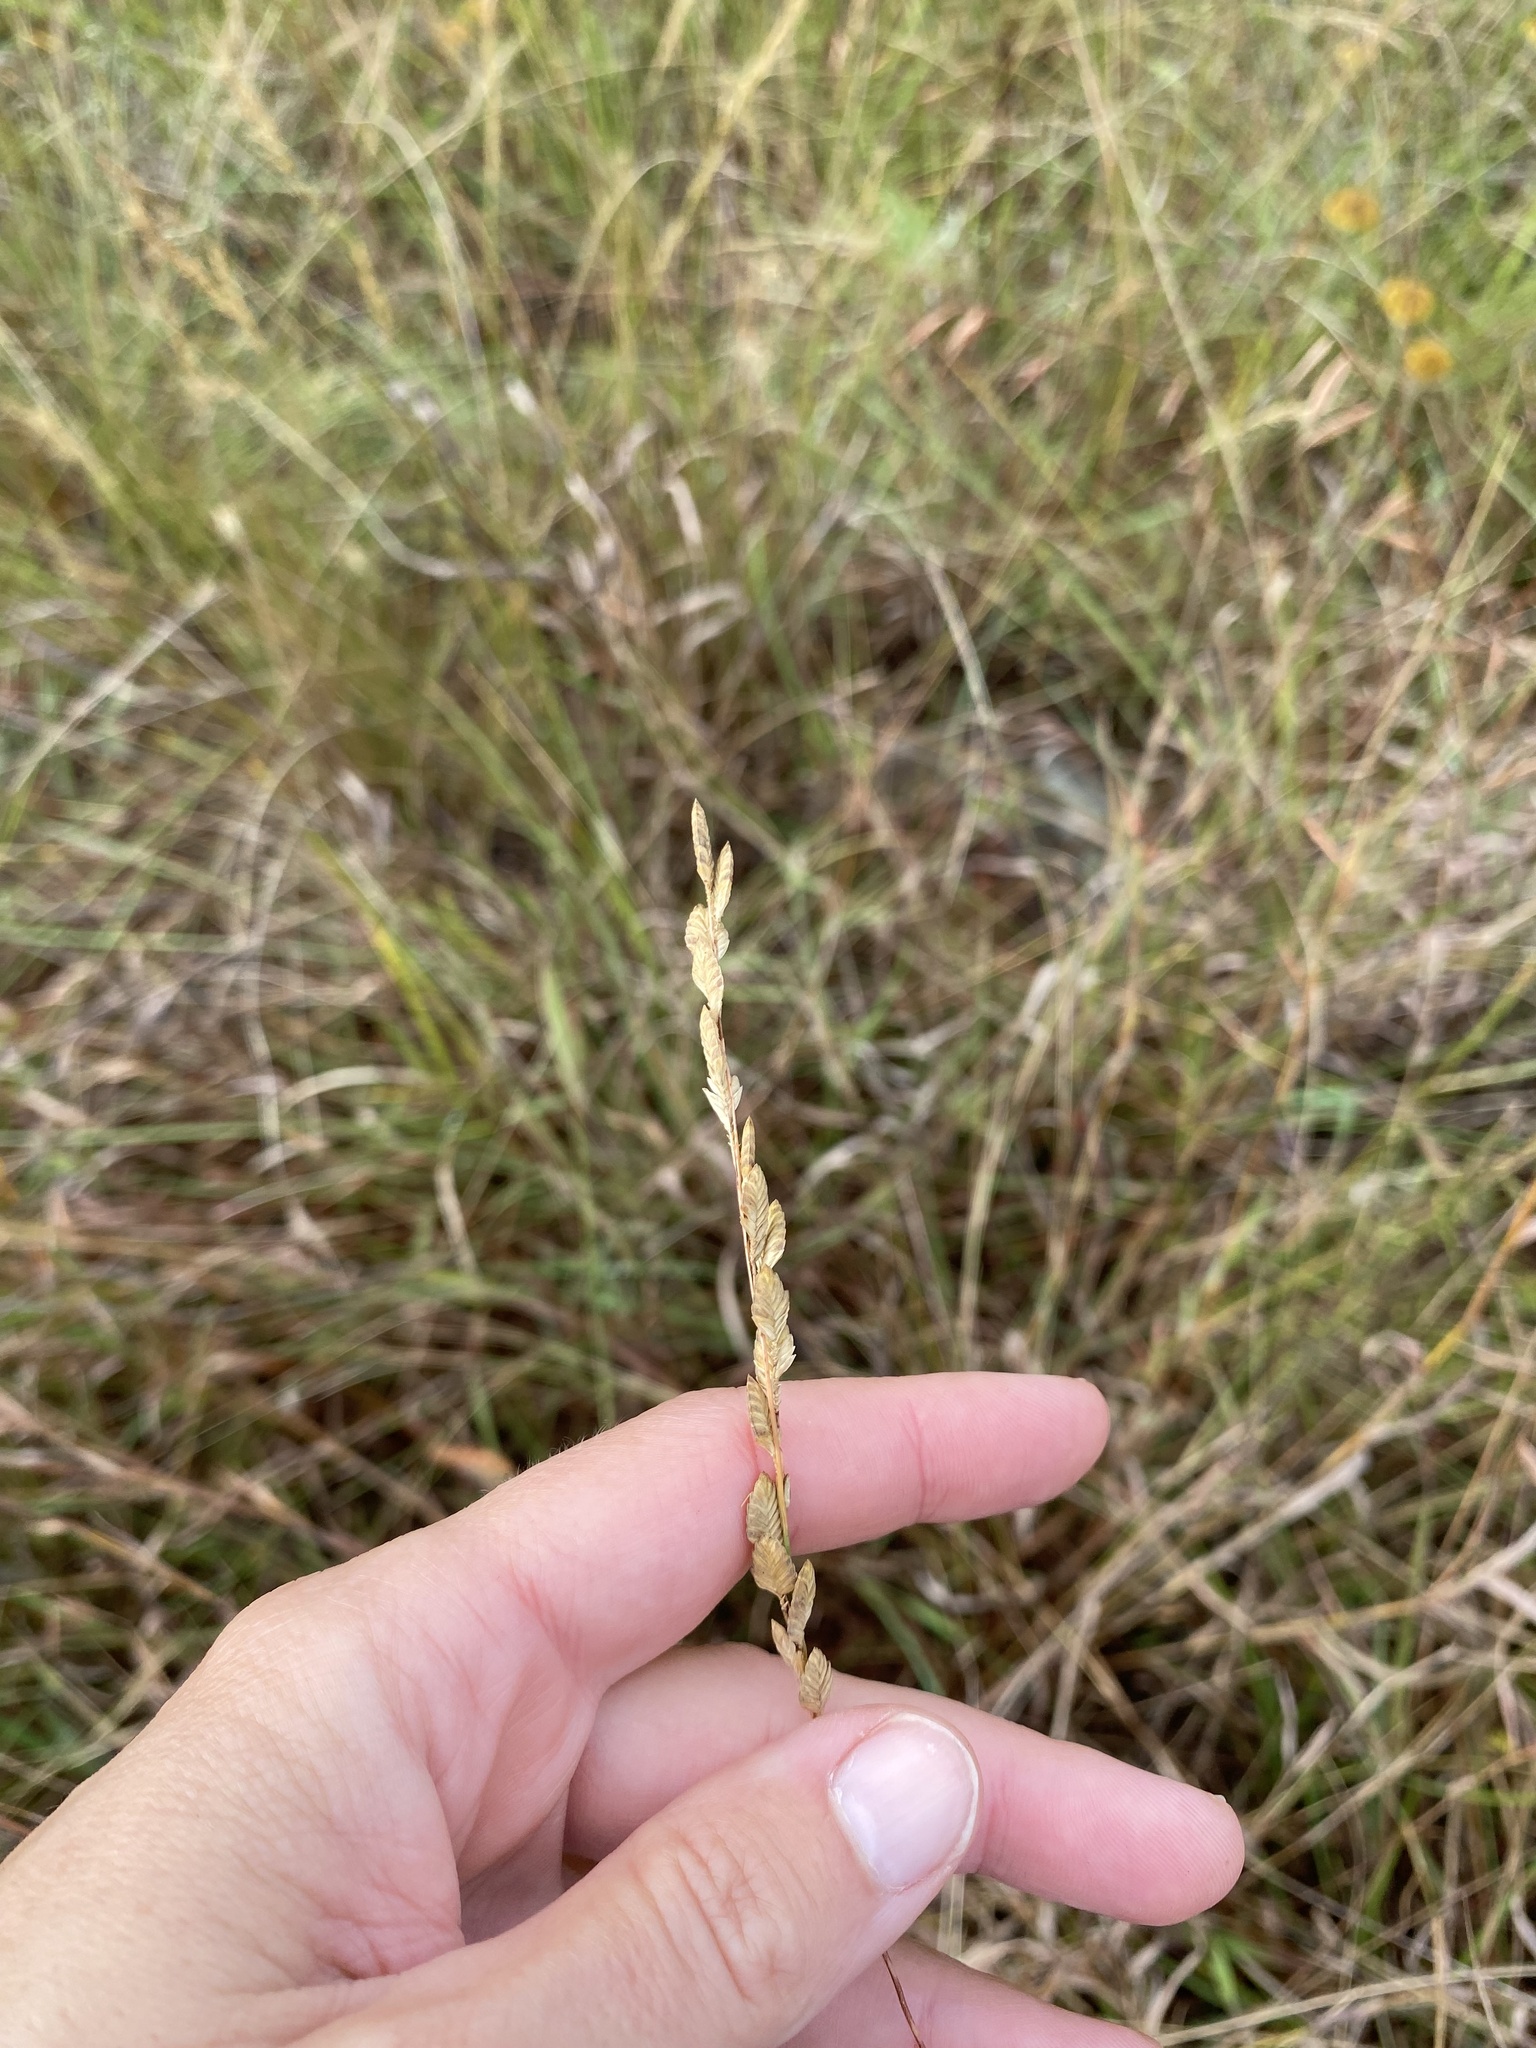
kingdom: Plantae
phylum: Tracheophyta
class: Liliopsida
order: Poales
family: Poaceae
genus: Eragrostis
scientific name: Eragrostis capensis
